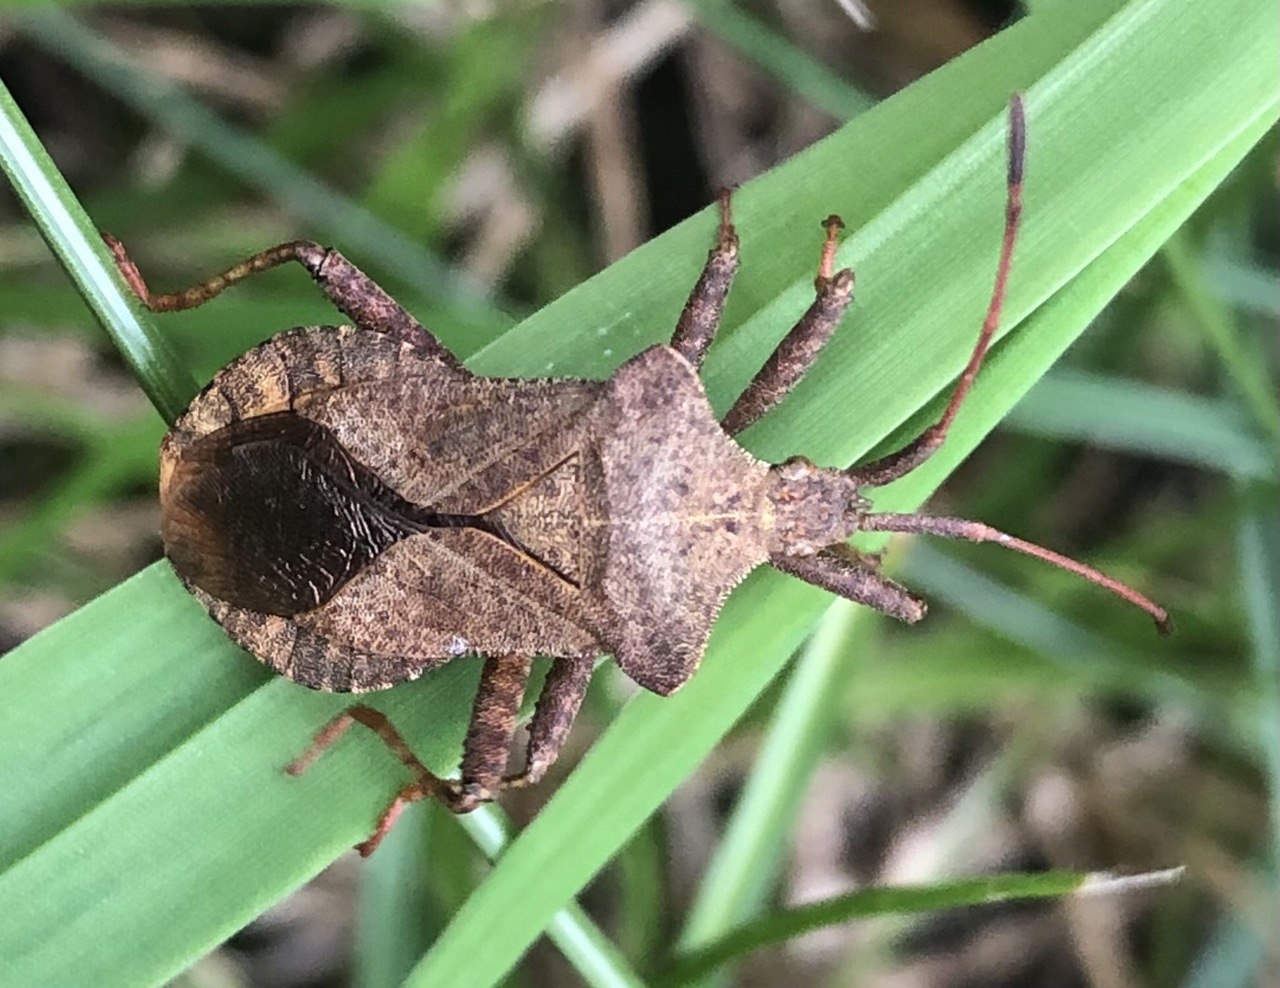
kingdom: Animalia
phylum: Arthropoda
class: Insecta
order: Hemiptera
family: Coreidae
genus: Coreus
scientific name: Coreus marginatus
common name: Dock bug
